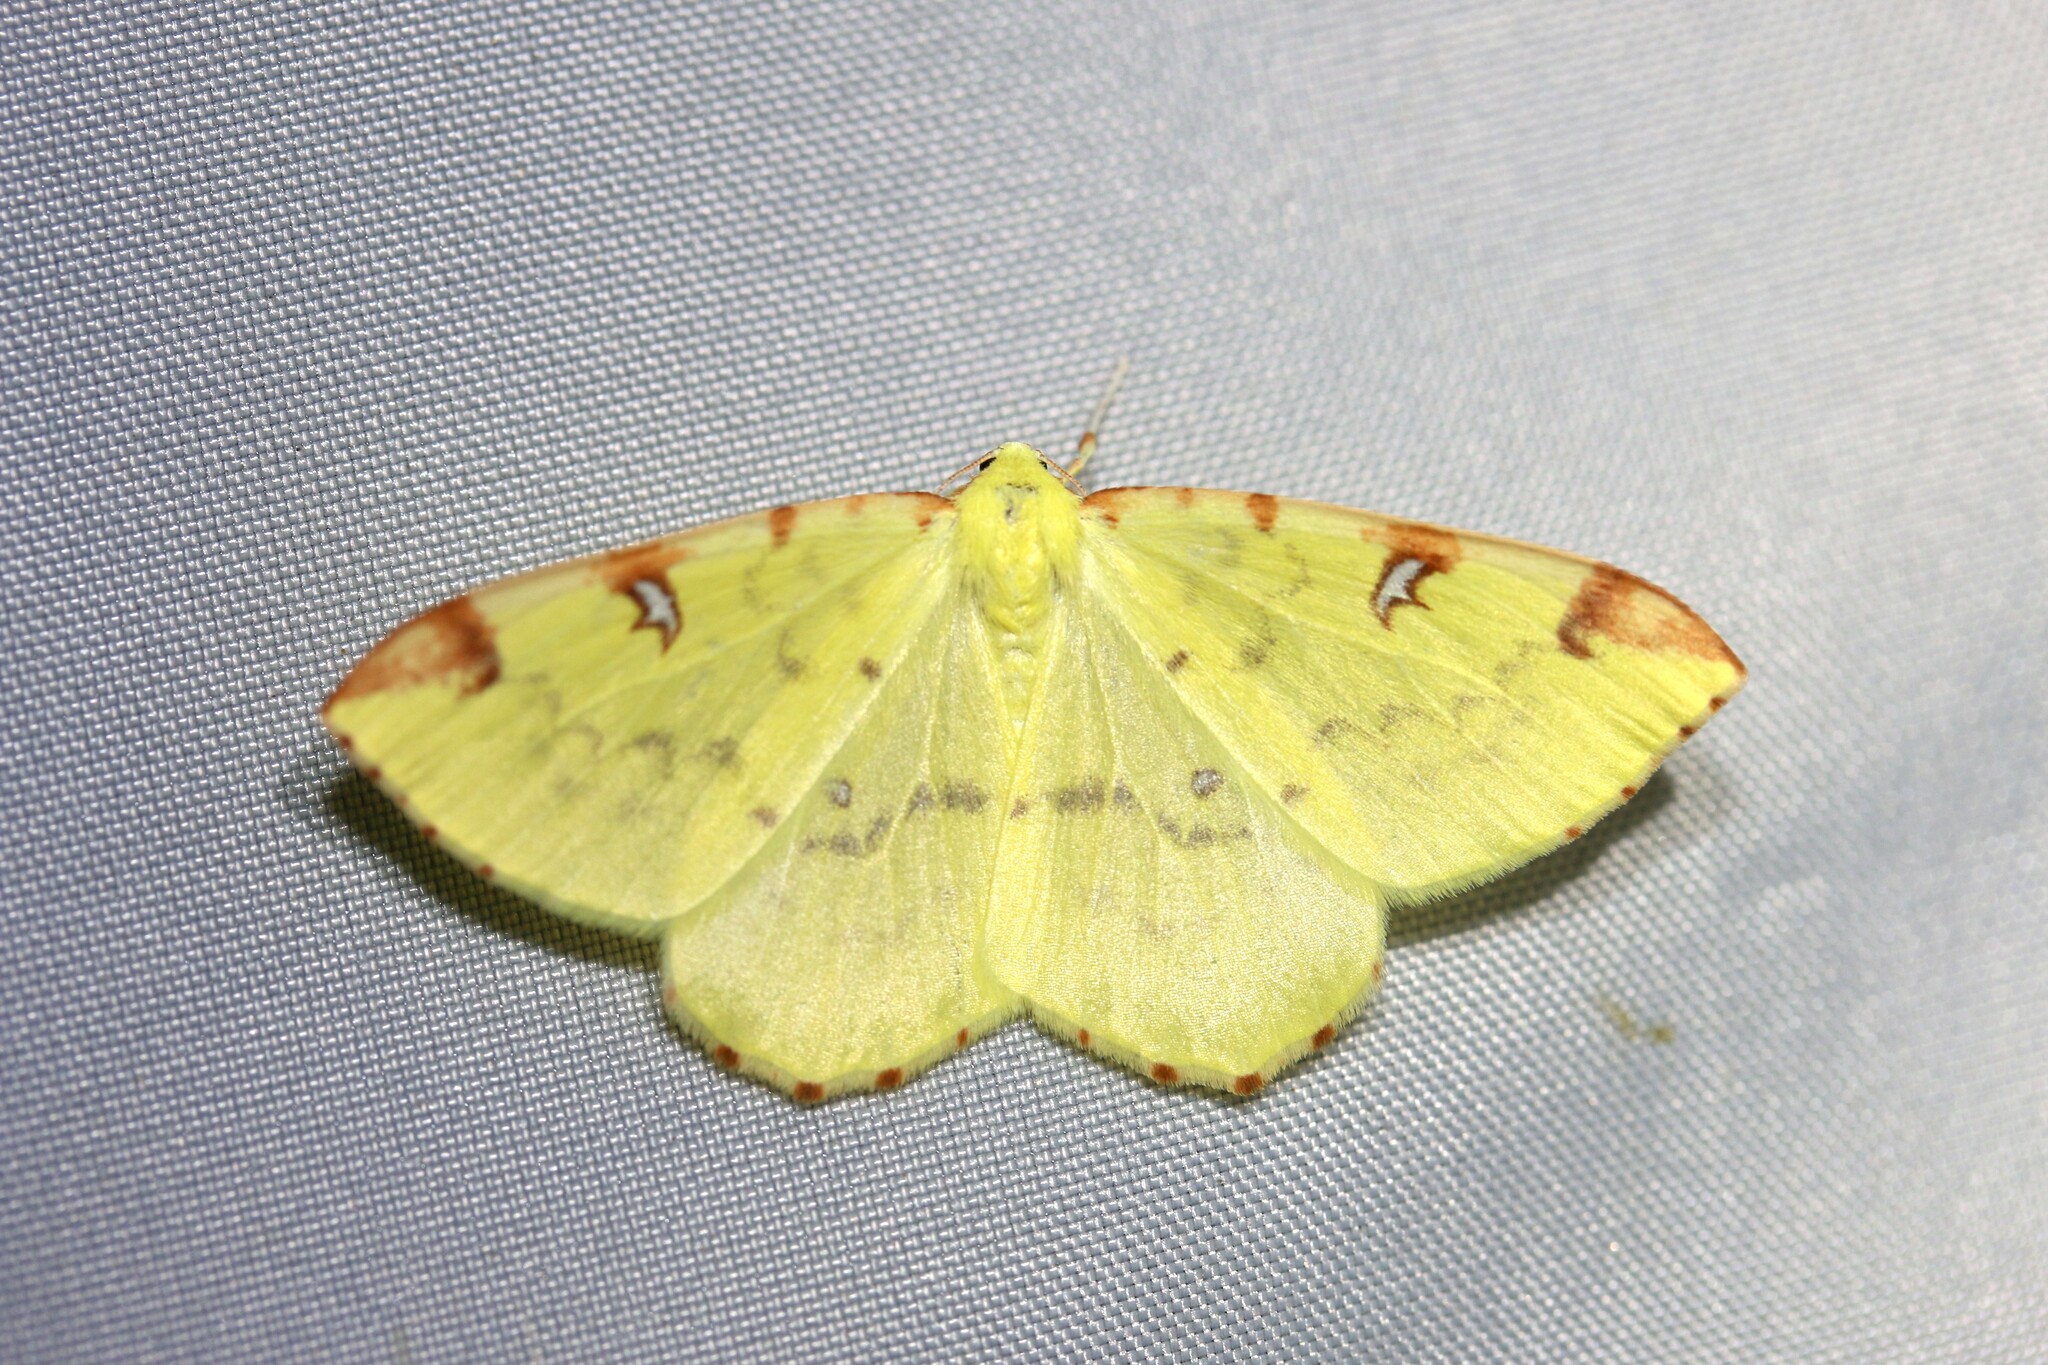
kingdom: Animalia
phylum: Arthropoda
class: Insecta
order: Lepidoptera
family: Geometridae
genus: Opisthograptis
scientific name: Opisthograptis luteolata
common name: Brimstone moth
